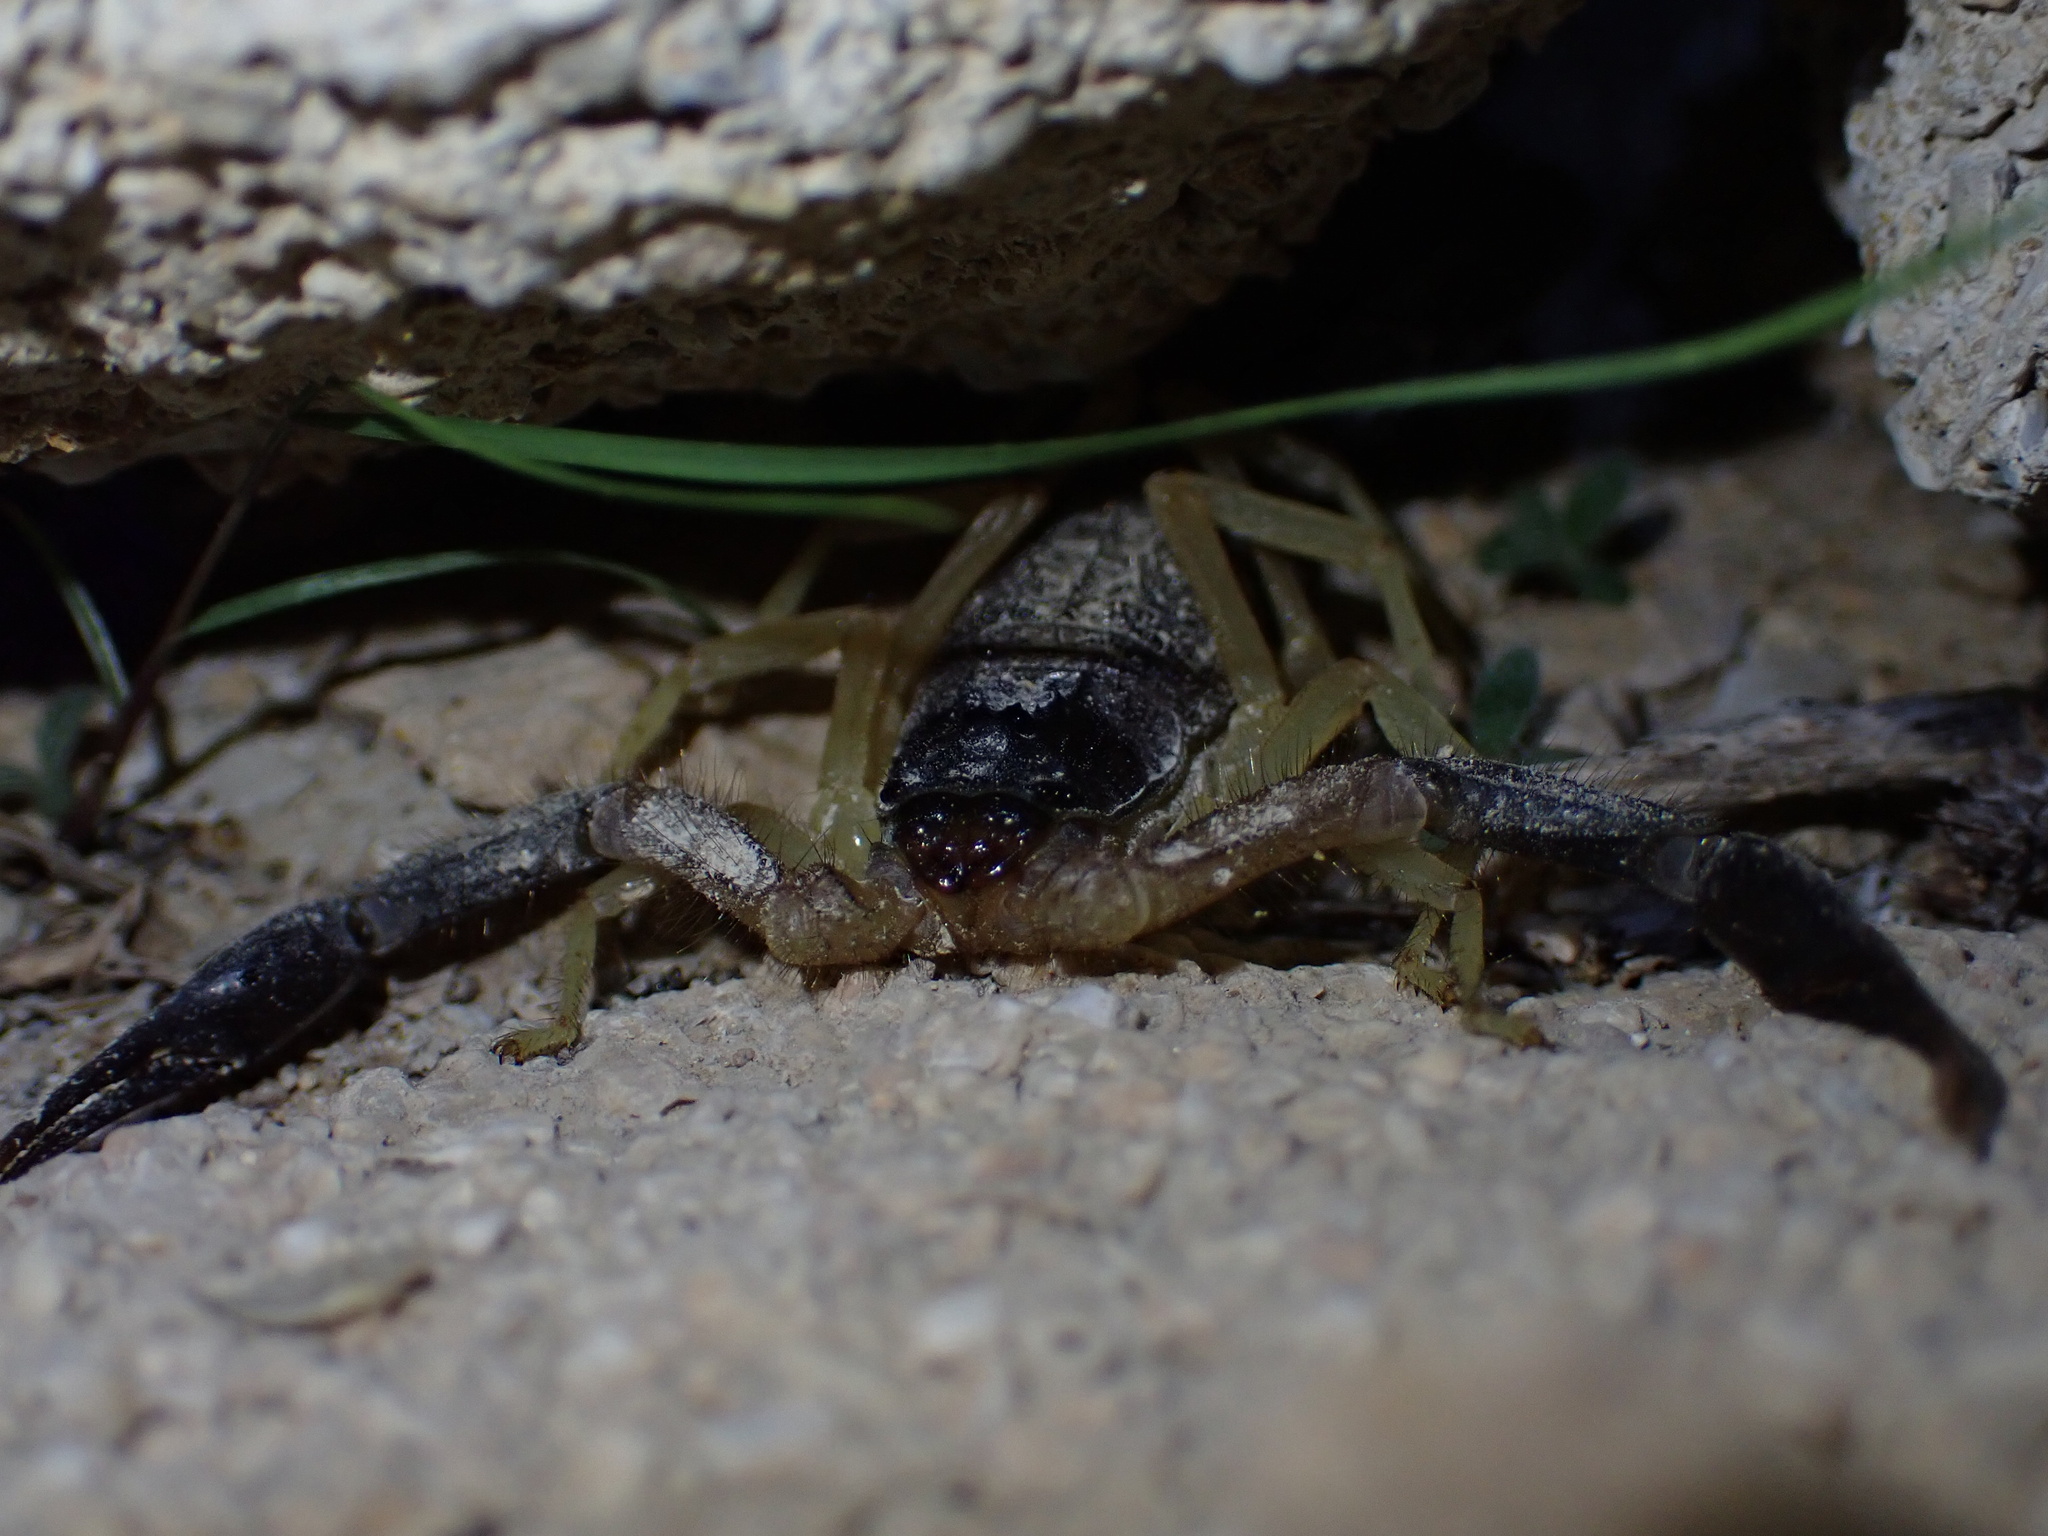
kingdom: Animalia
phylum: Arthropoda
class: Arachnida
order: Scorpiones
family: Buthidae
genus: Hottentotta
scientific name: Hottentotta jayakari
